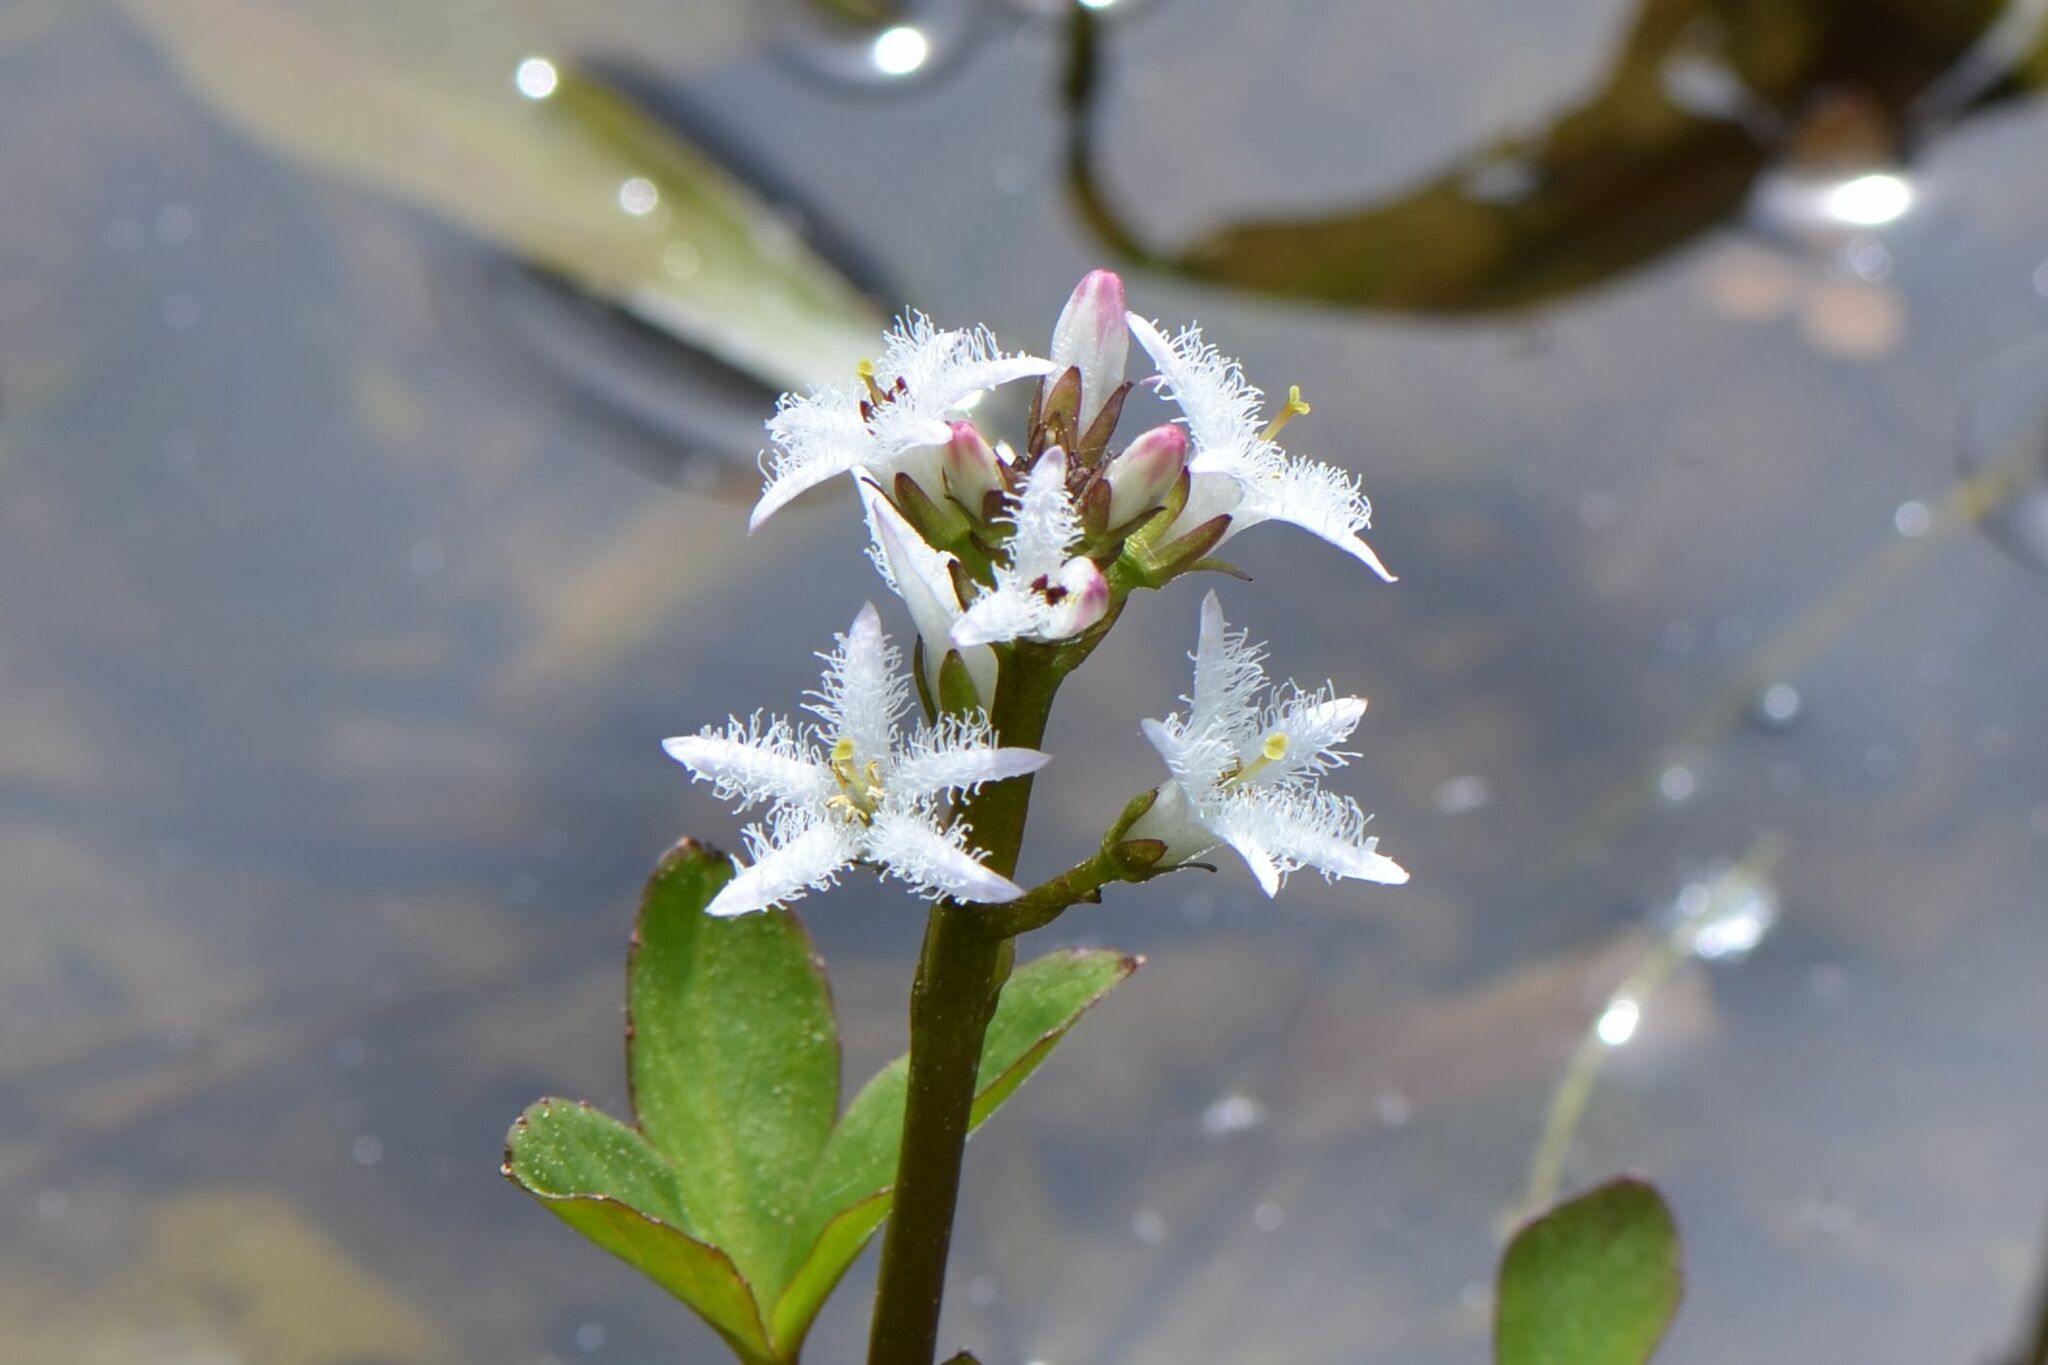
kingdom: Plantae
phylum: Tracheophyta
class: Magnoliopsida
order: Asterales
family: Menyanthaceae
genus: Menyanthes
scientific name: Menyanthes trifoliata
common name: Bogbean
